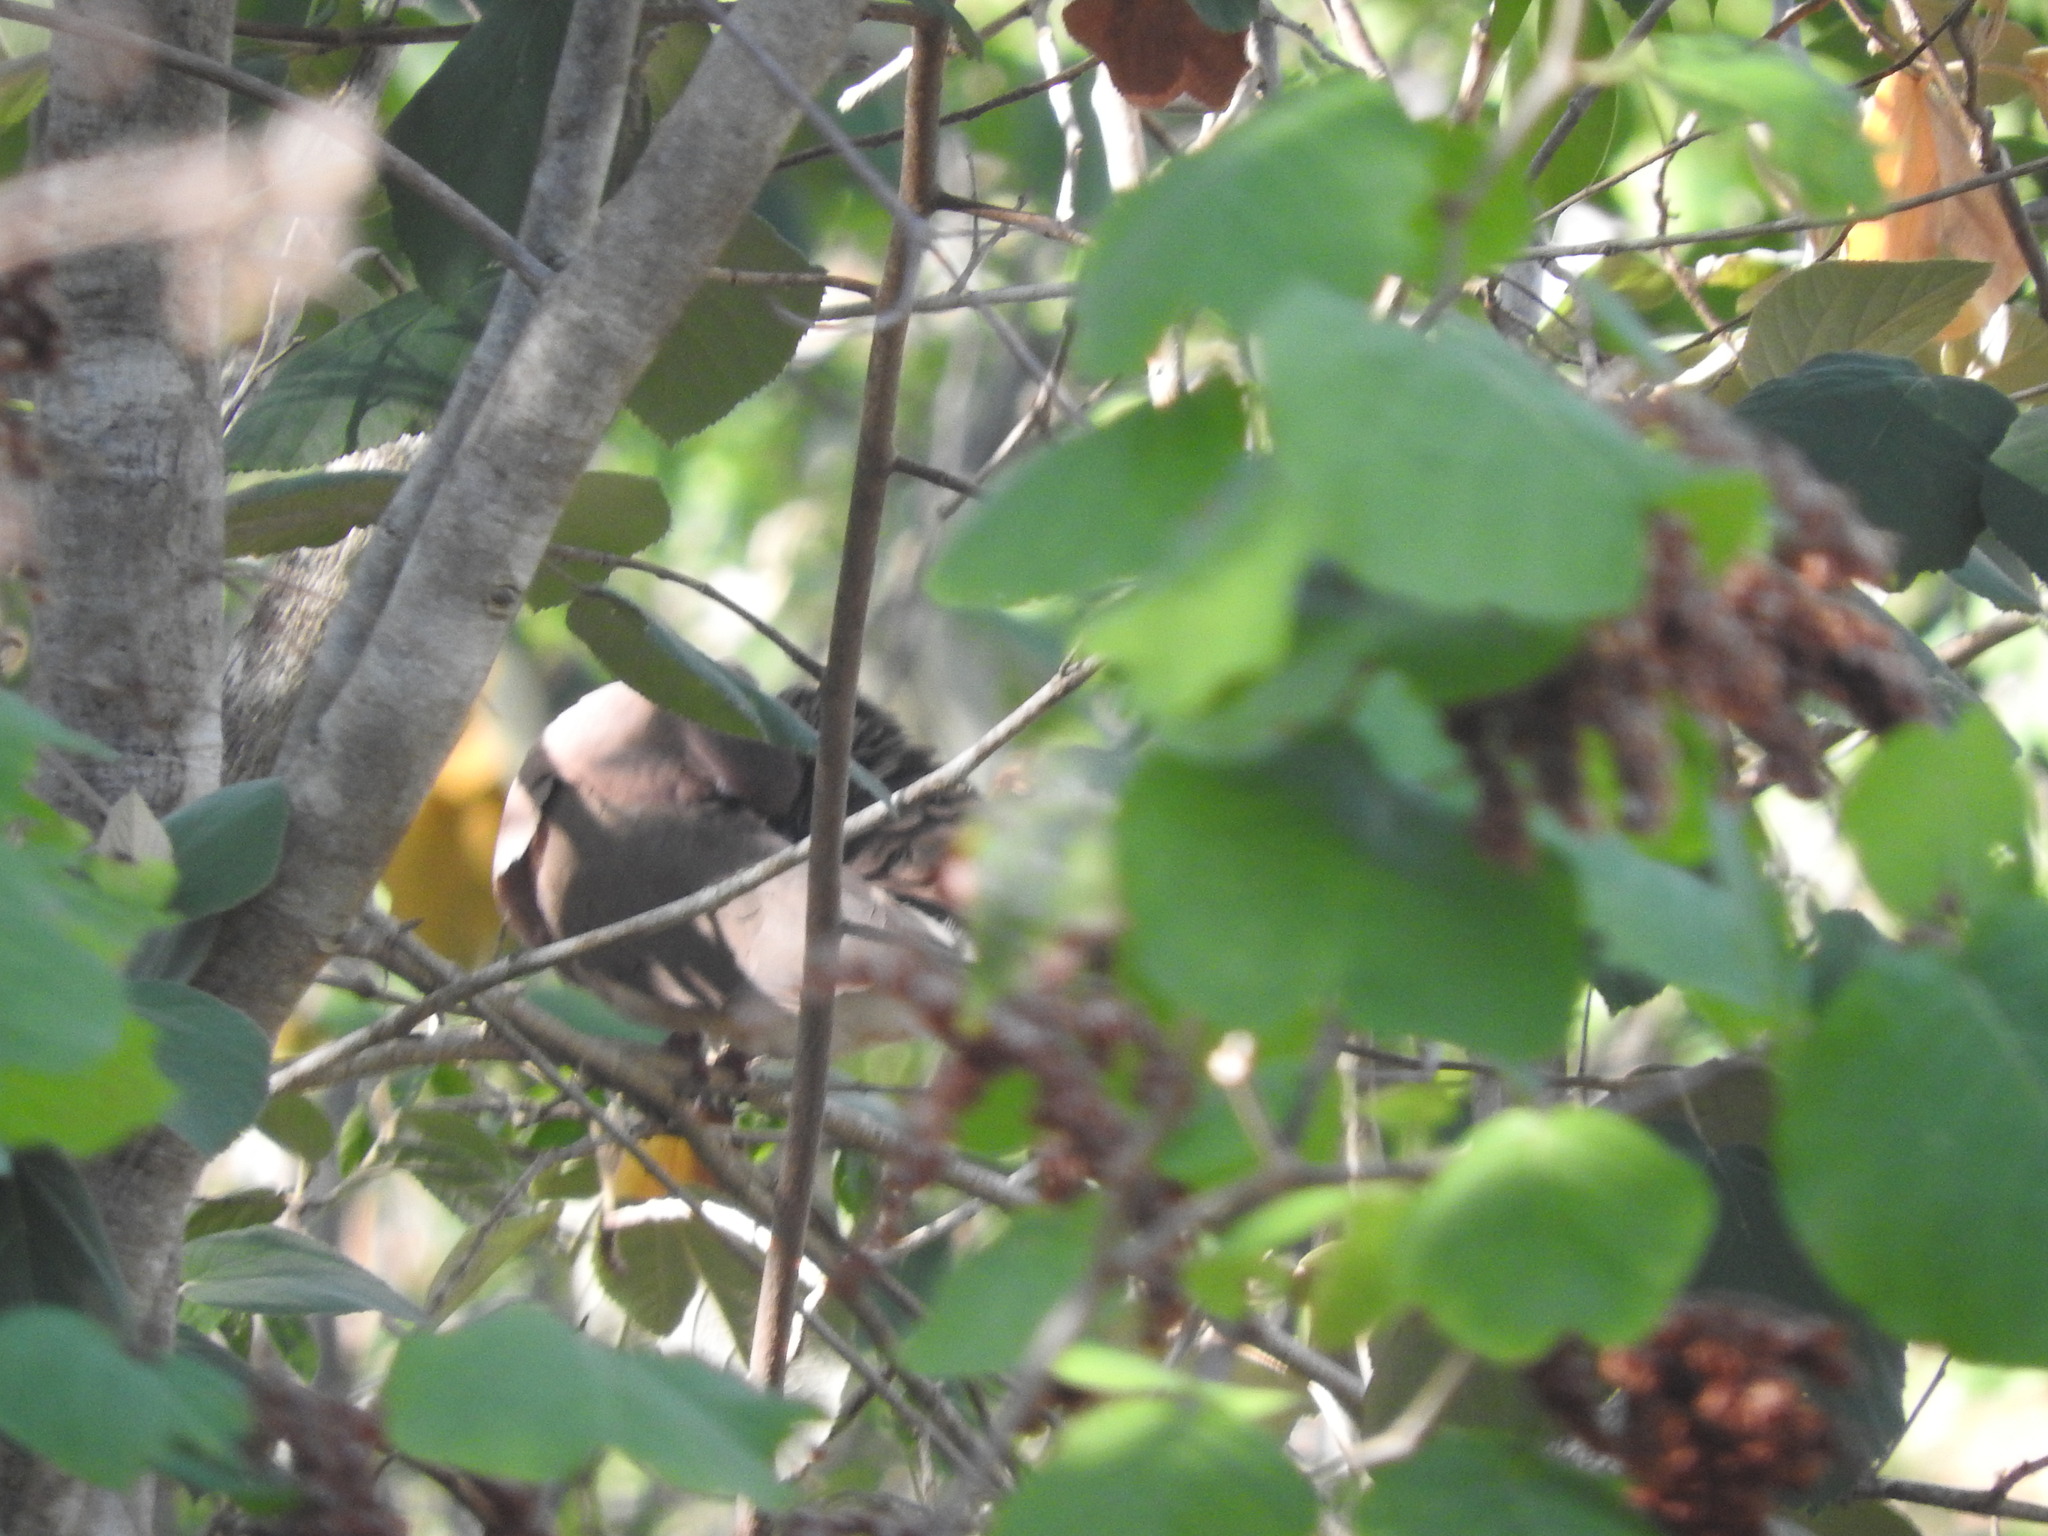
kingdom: Animalia
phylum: Chordata
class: Aves
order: Columbiformes
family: Columbidae
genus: Leptotila
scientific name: Leptotila verreauxi
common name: White-tipped dove
